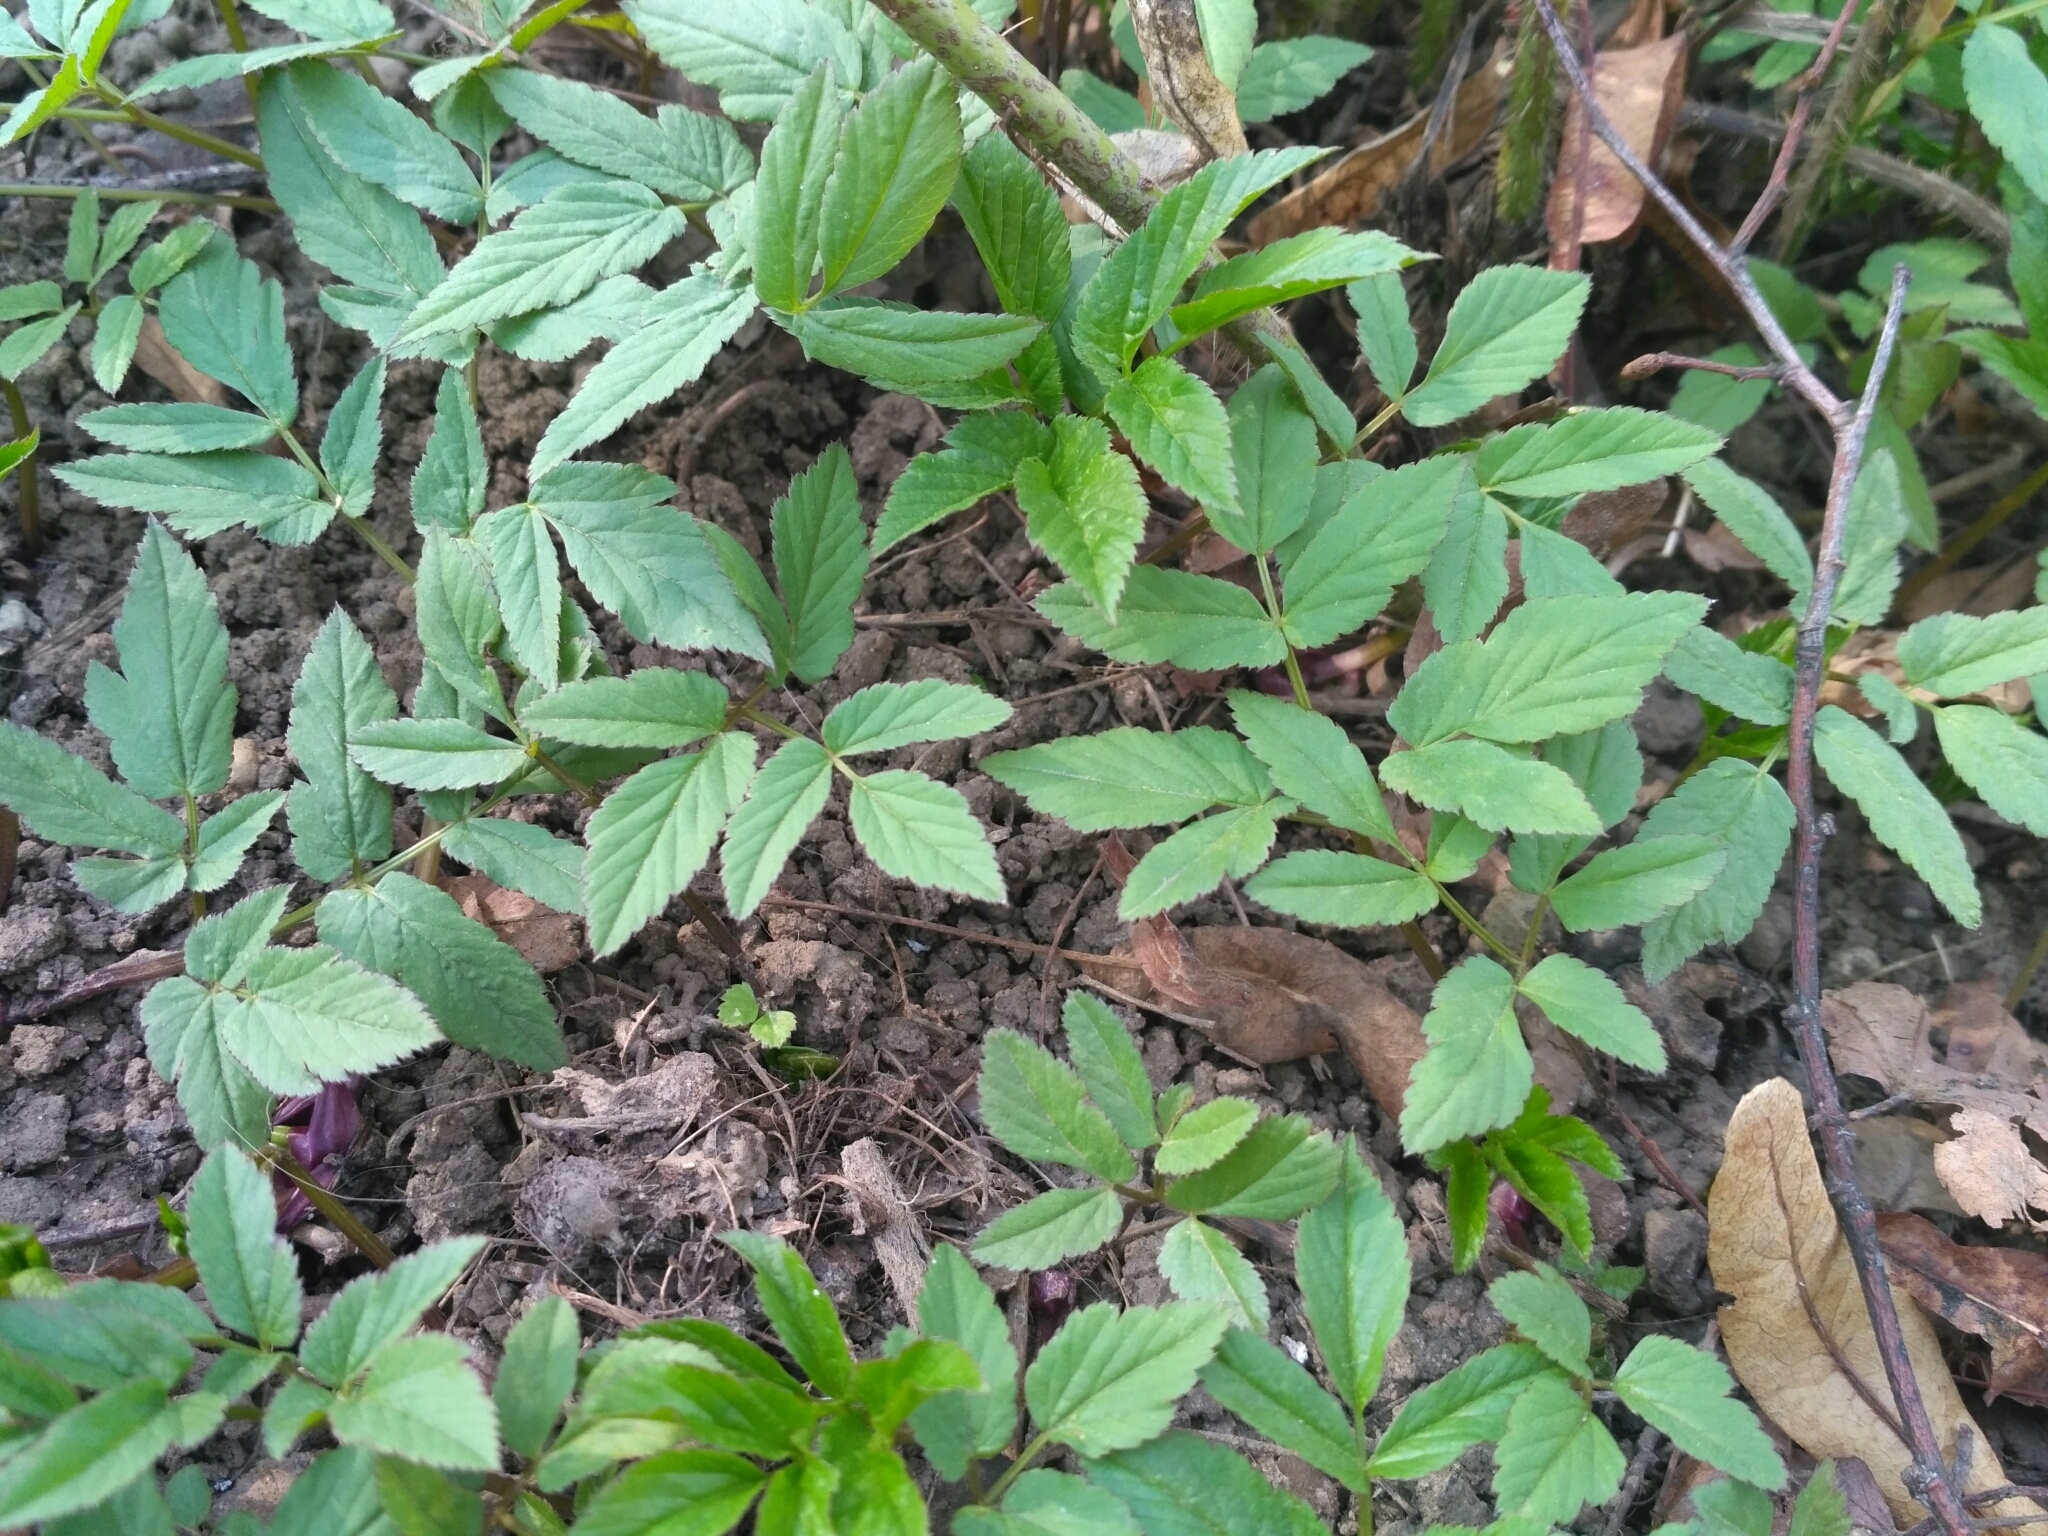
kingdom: Plantae
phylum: Tracheophyta
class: Magnoliopsida
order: Apiales
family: Apiaceae
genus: Aegopodium
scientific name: Aegopodium podagraria
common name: Ground-elder
